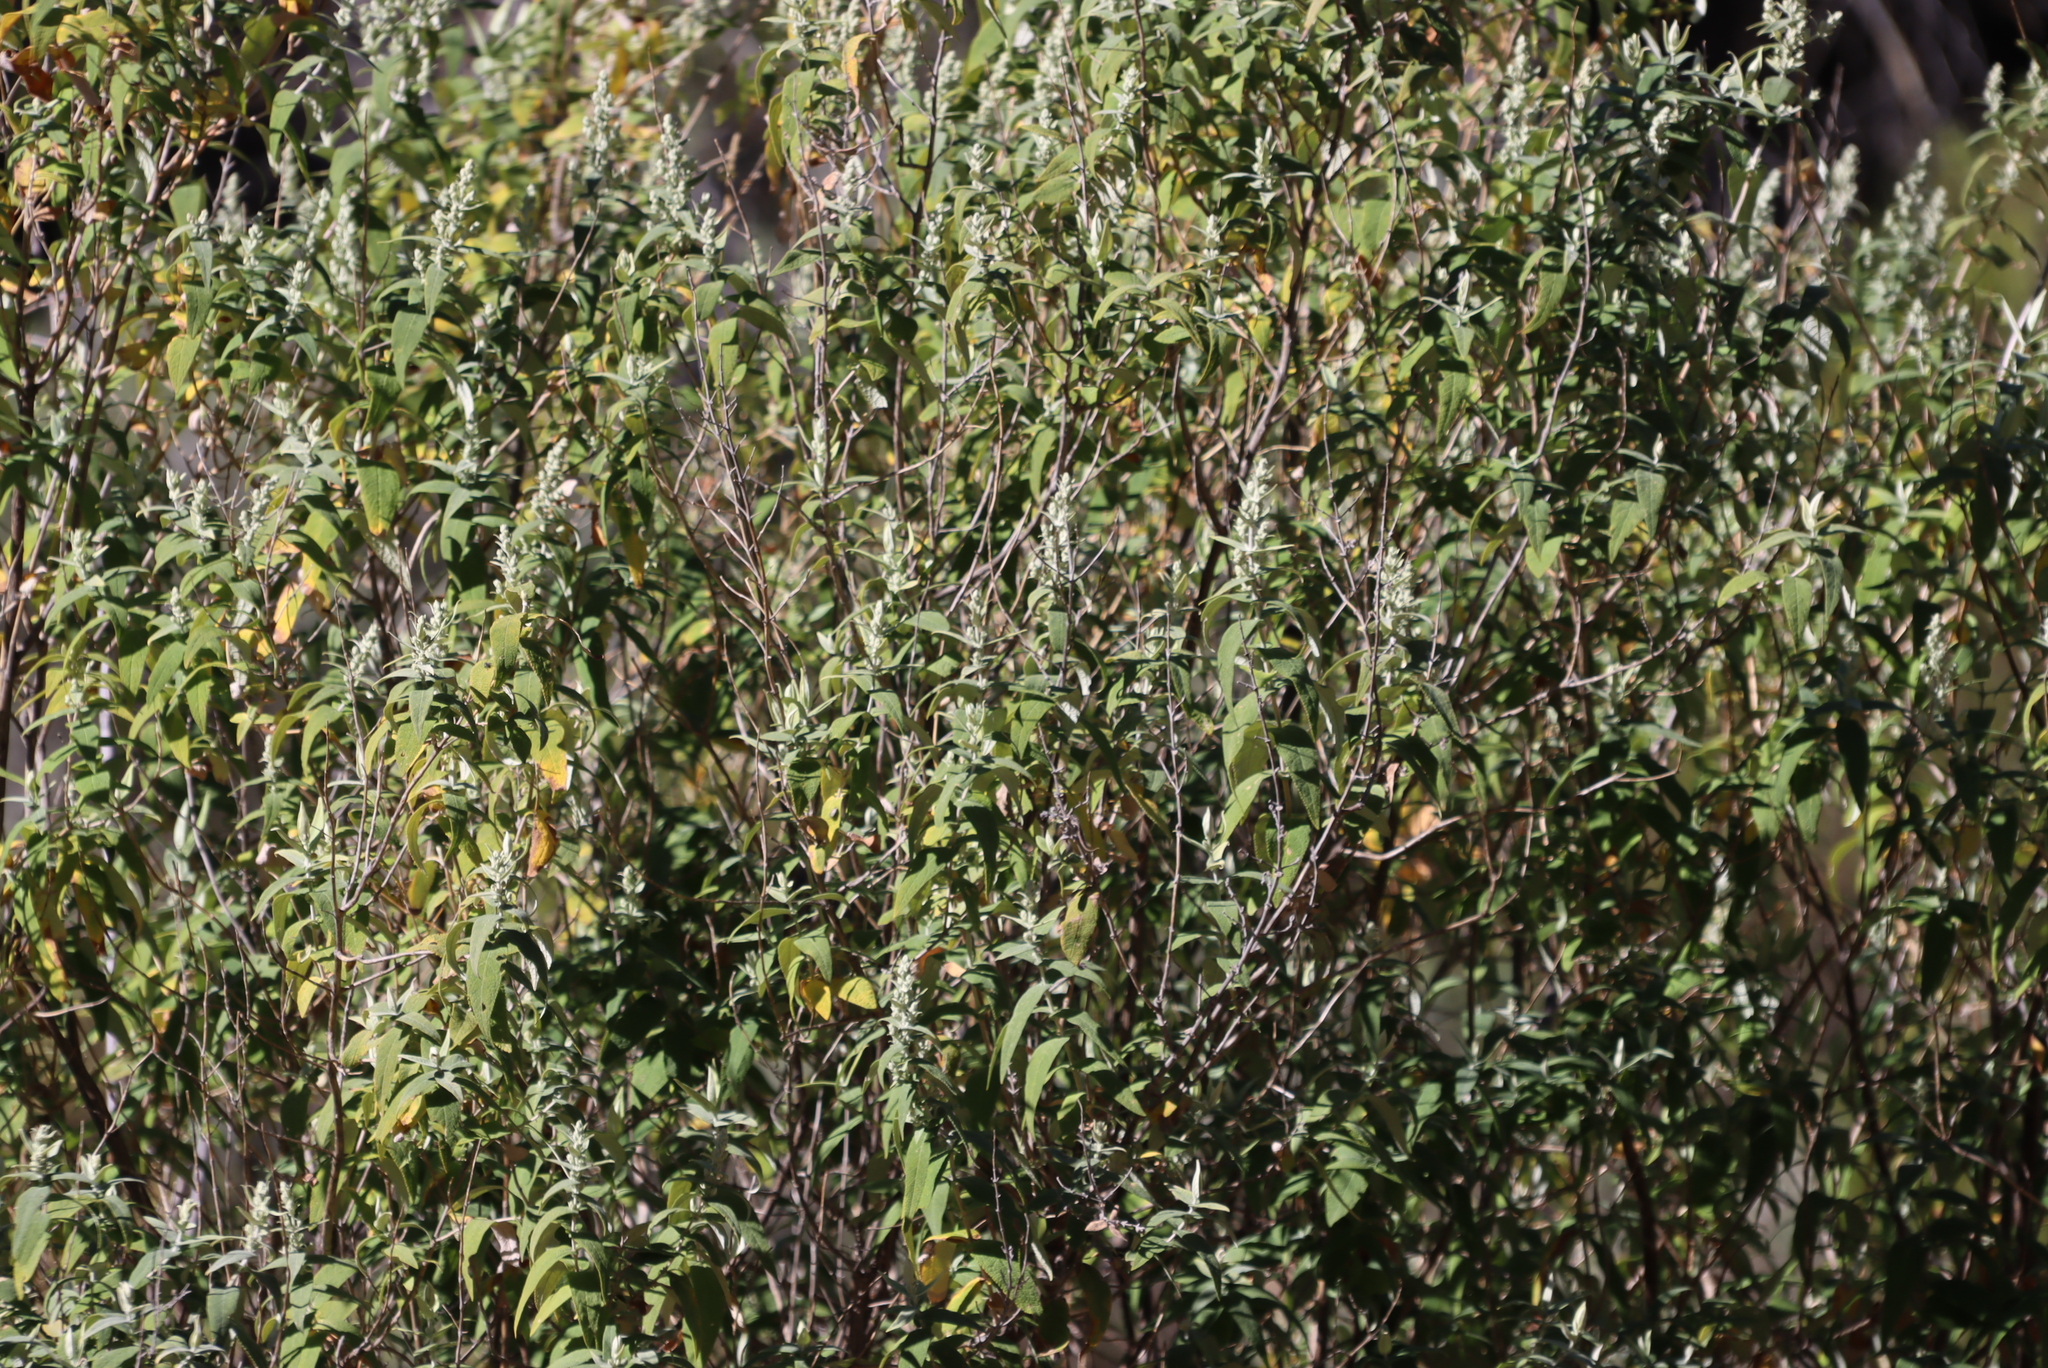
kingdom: Plantae
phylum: Tracheophyta
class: Magnoliopsida
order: Lamiales
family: Scrophulariaceae
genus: Buddleja
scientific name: Buddleja salviifolia
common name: Sagewood
